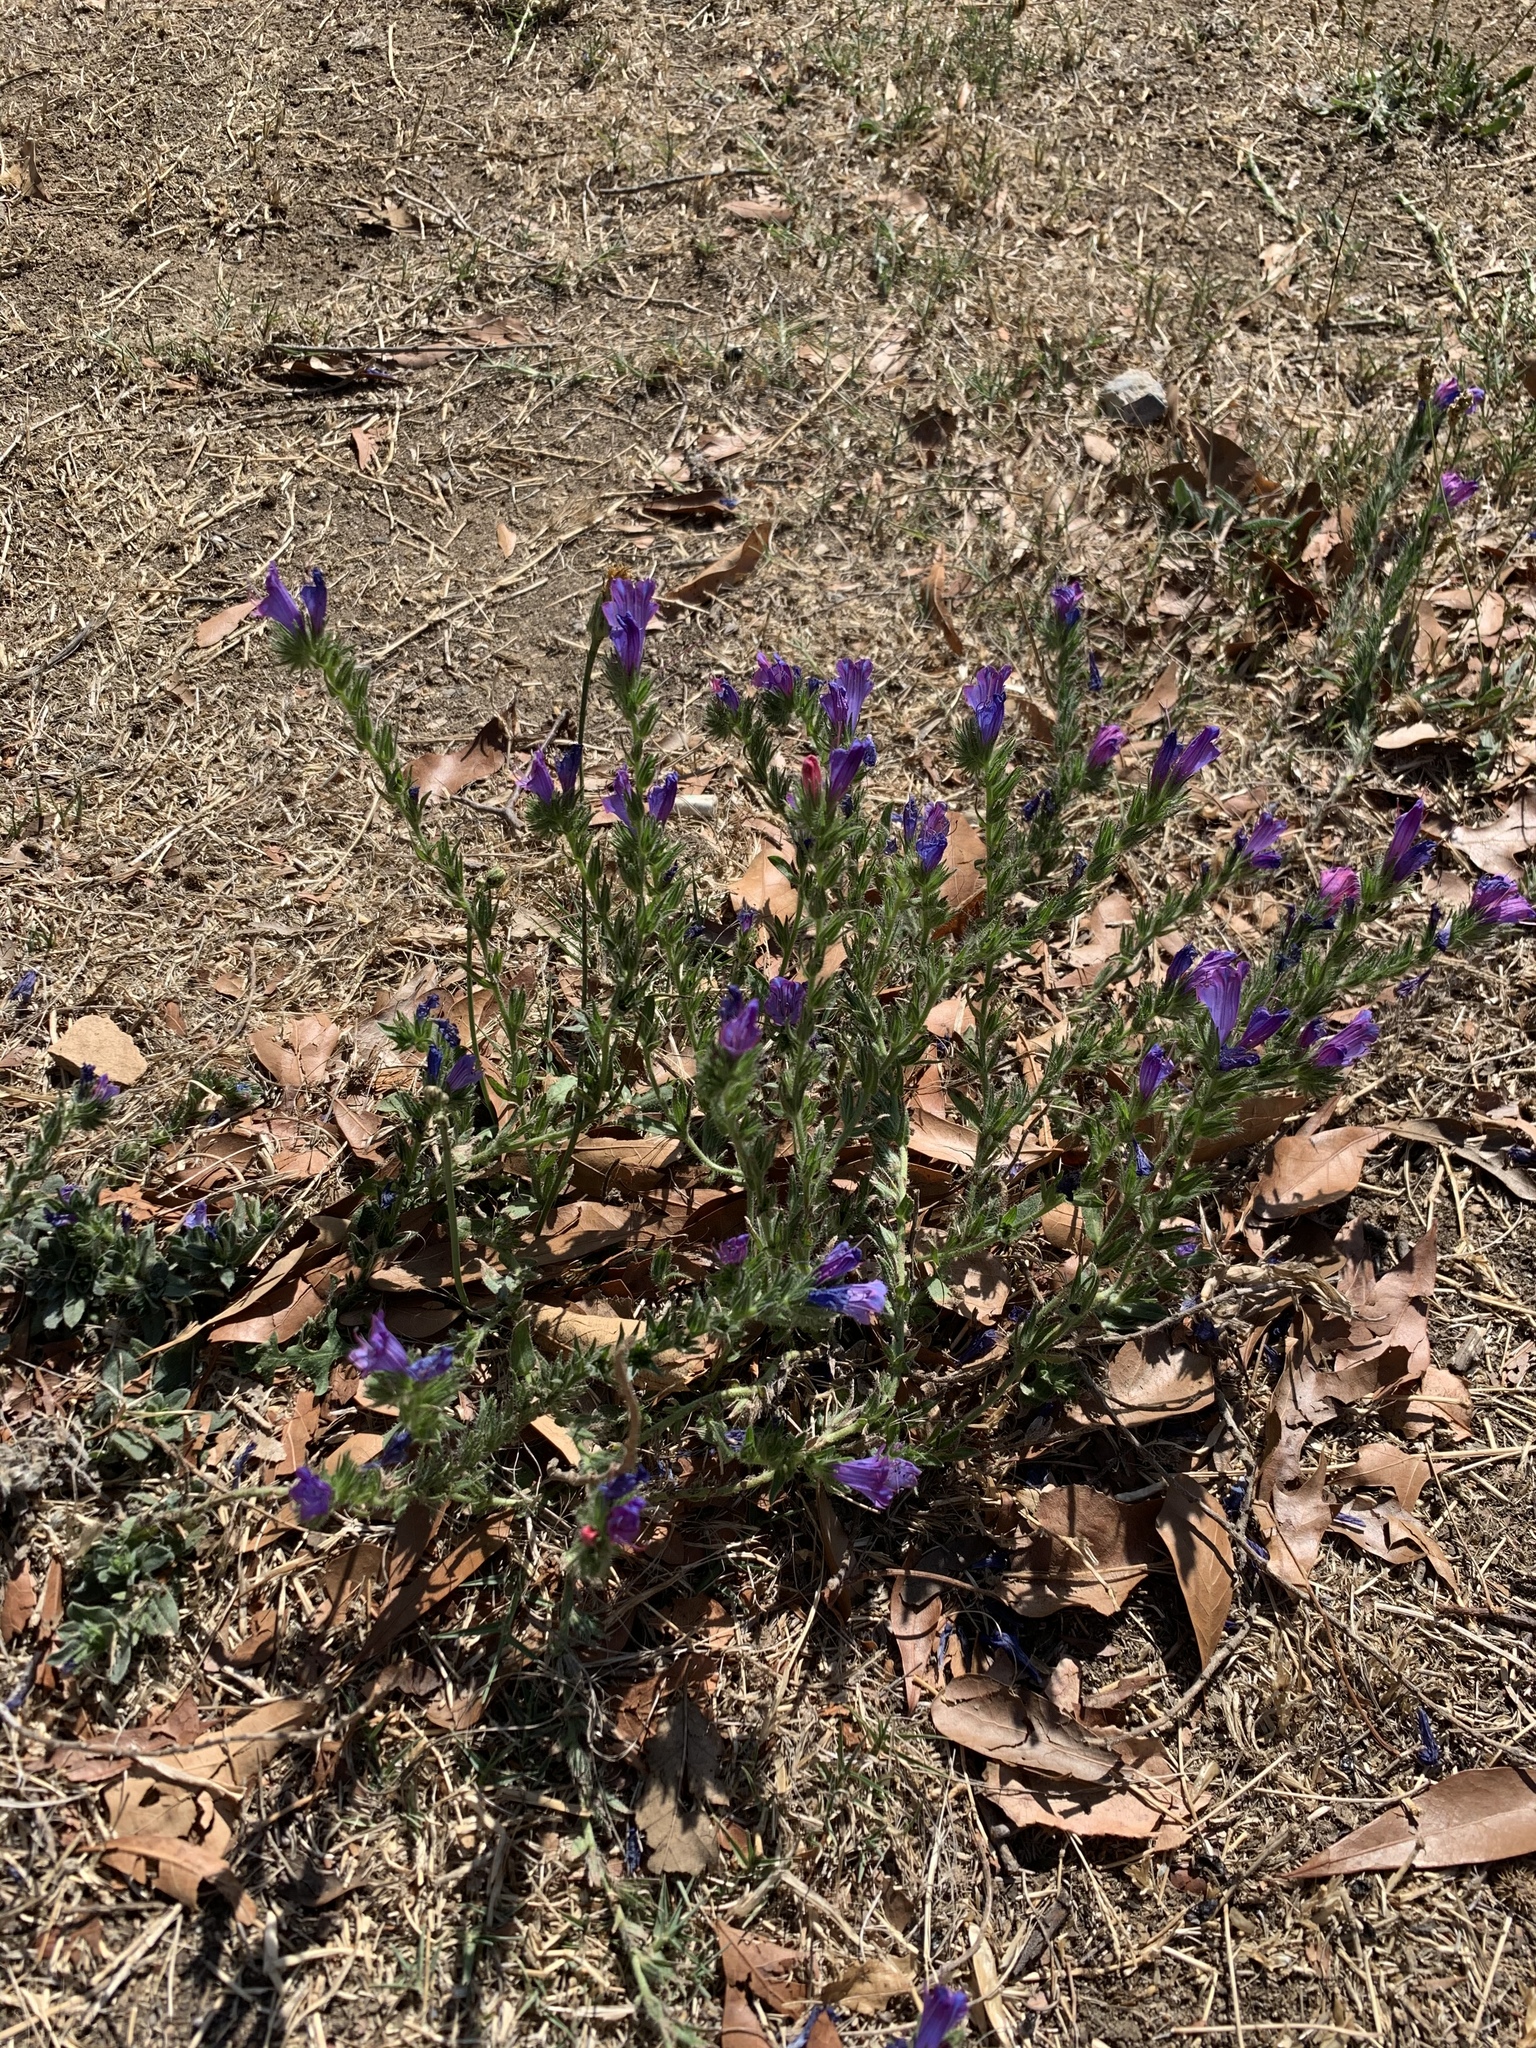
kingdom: Plantae
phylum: Tracheophyta
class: Magnoliopsida
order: Boraginales
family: Boraginaceae
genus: Echium
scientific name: Echium plantagineum
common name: Purple viper's-bugloss
